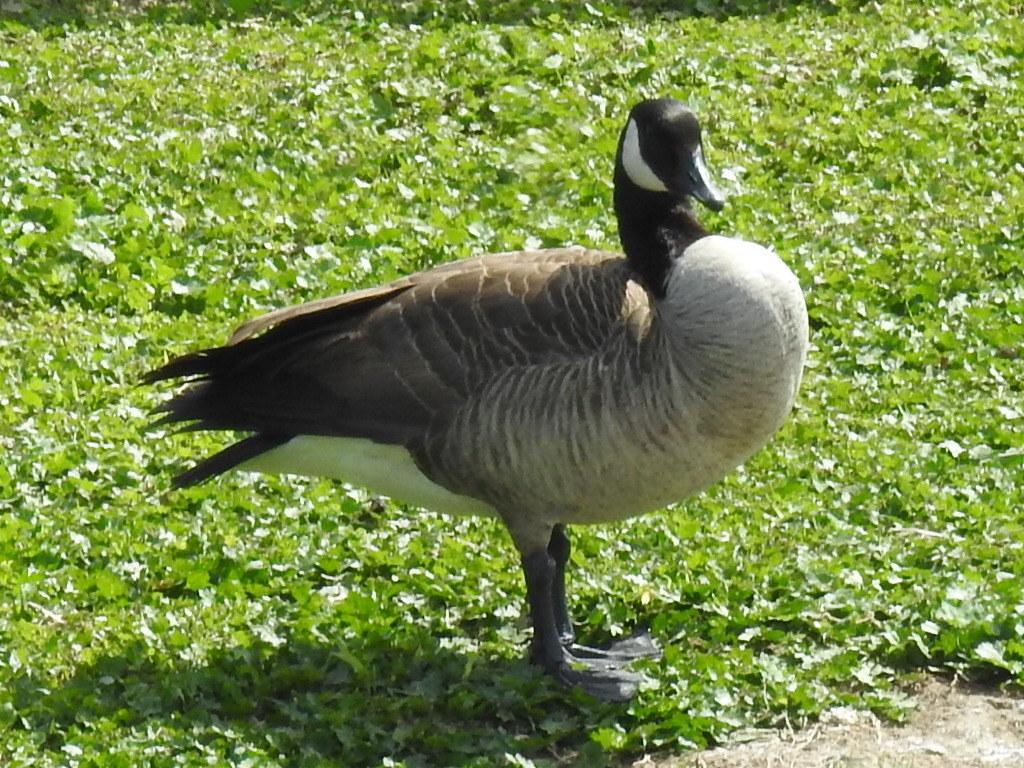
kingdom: Animalia
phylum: Chordata
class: Aves
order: Anseriformes
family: Anatidae
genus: Branta
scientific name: Branta canadensis
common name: Canada goose
